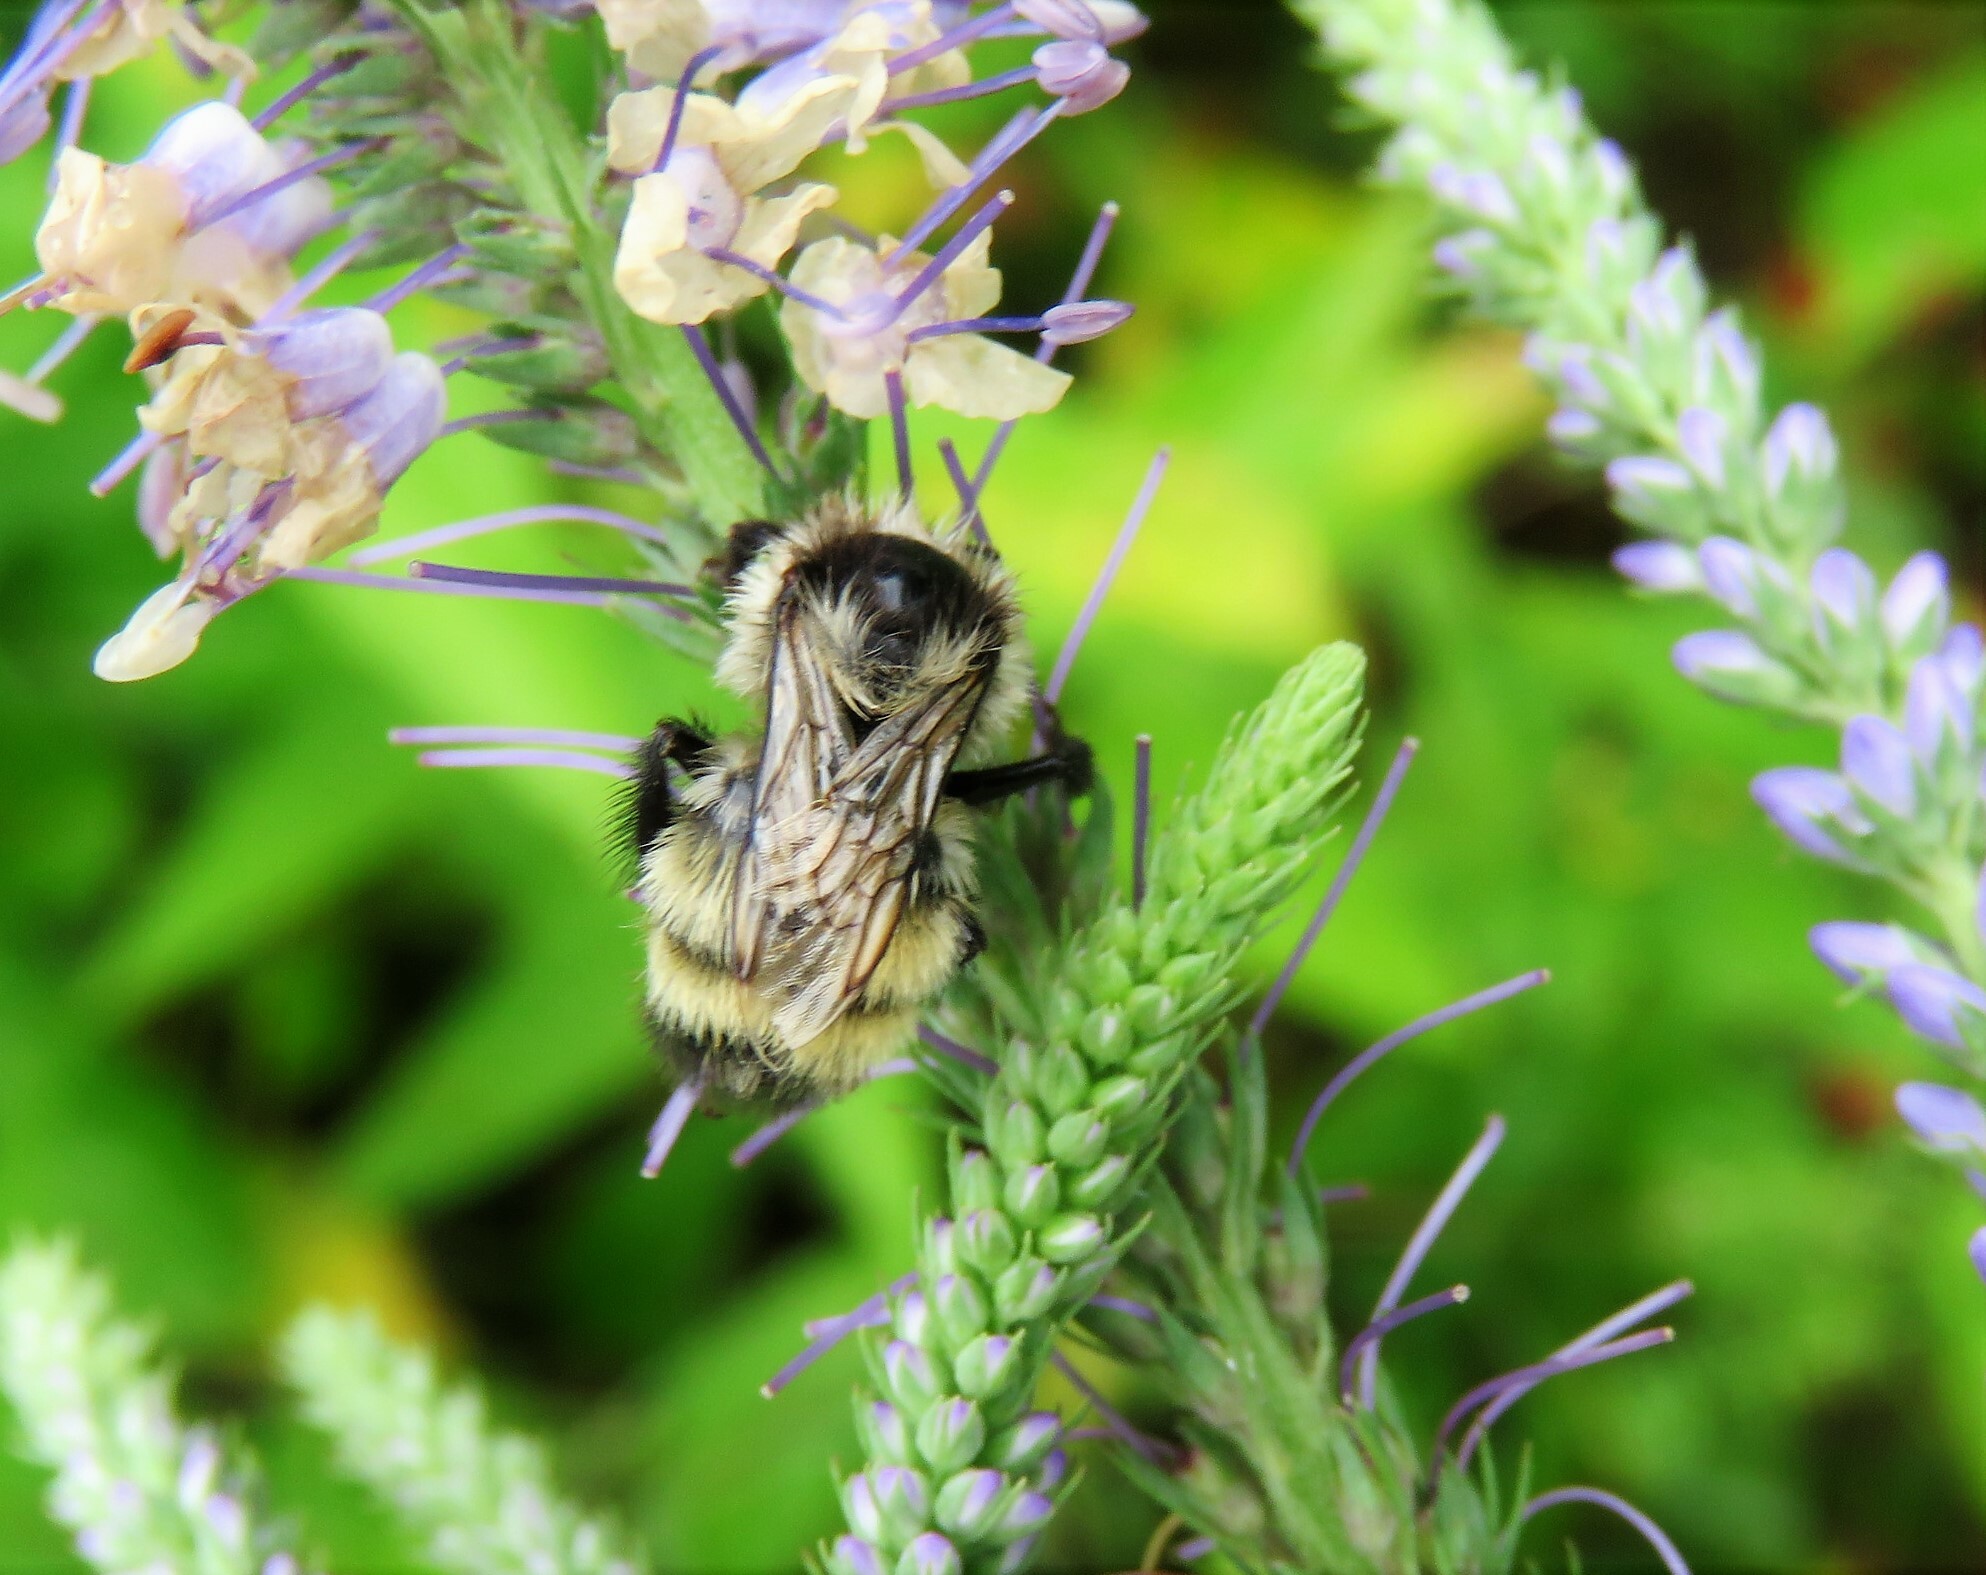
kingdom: Animalia
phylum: Arthropoda
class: Insecta
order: Hymenoptera
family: Apidae
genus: Bombus
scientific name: Bombus ternarius
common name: Tri-colored bumble bee
